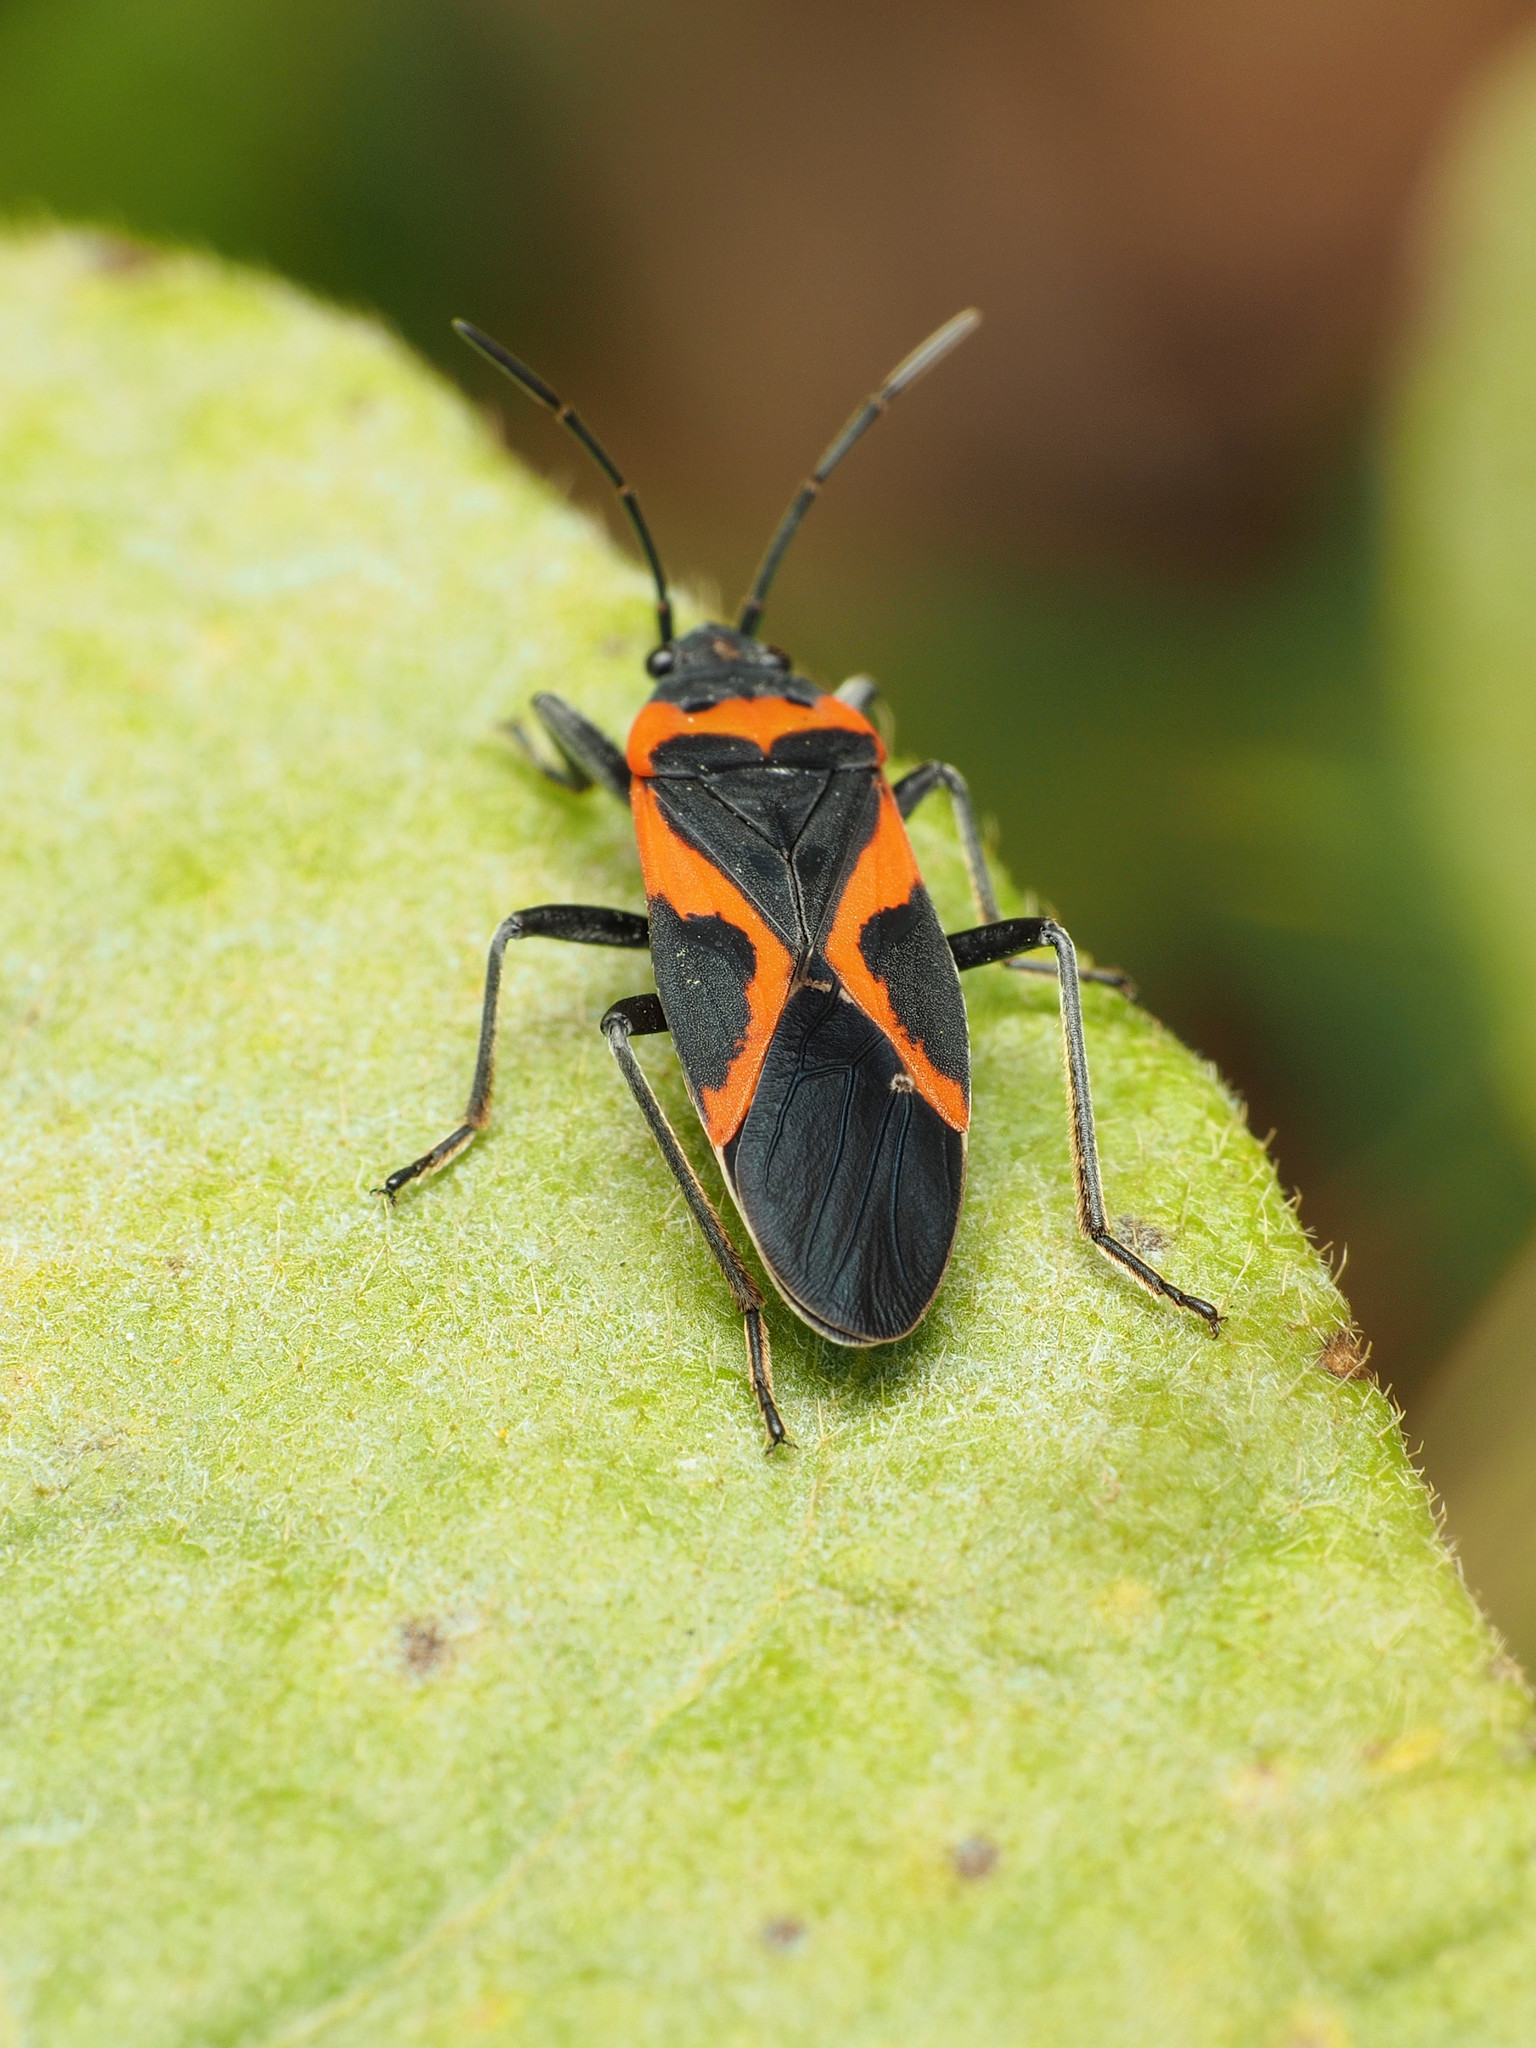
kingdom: Animalia
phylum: Arthropoda
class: Insecta
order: Hemiptera
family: Lygaeidae
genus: Lygaeus
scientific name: Lygaeus kalmii
